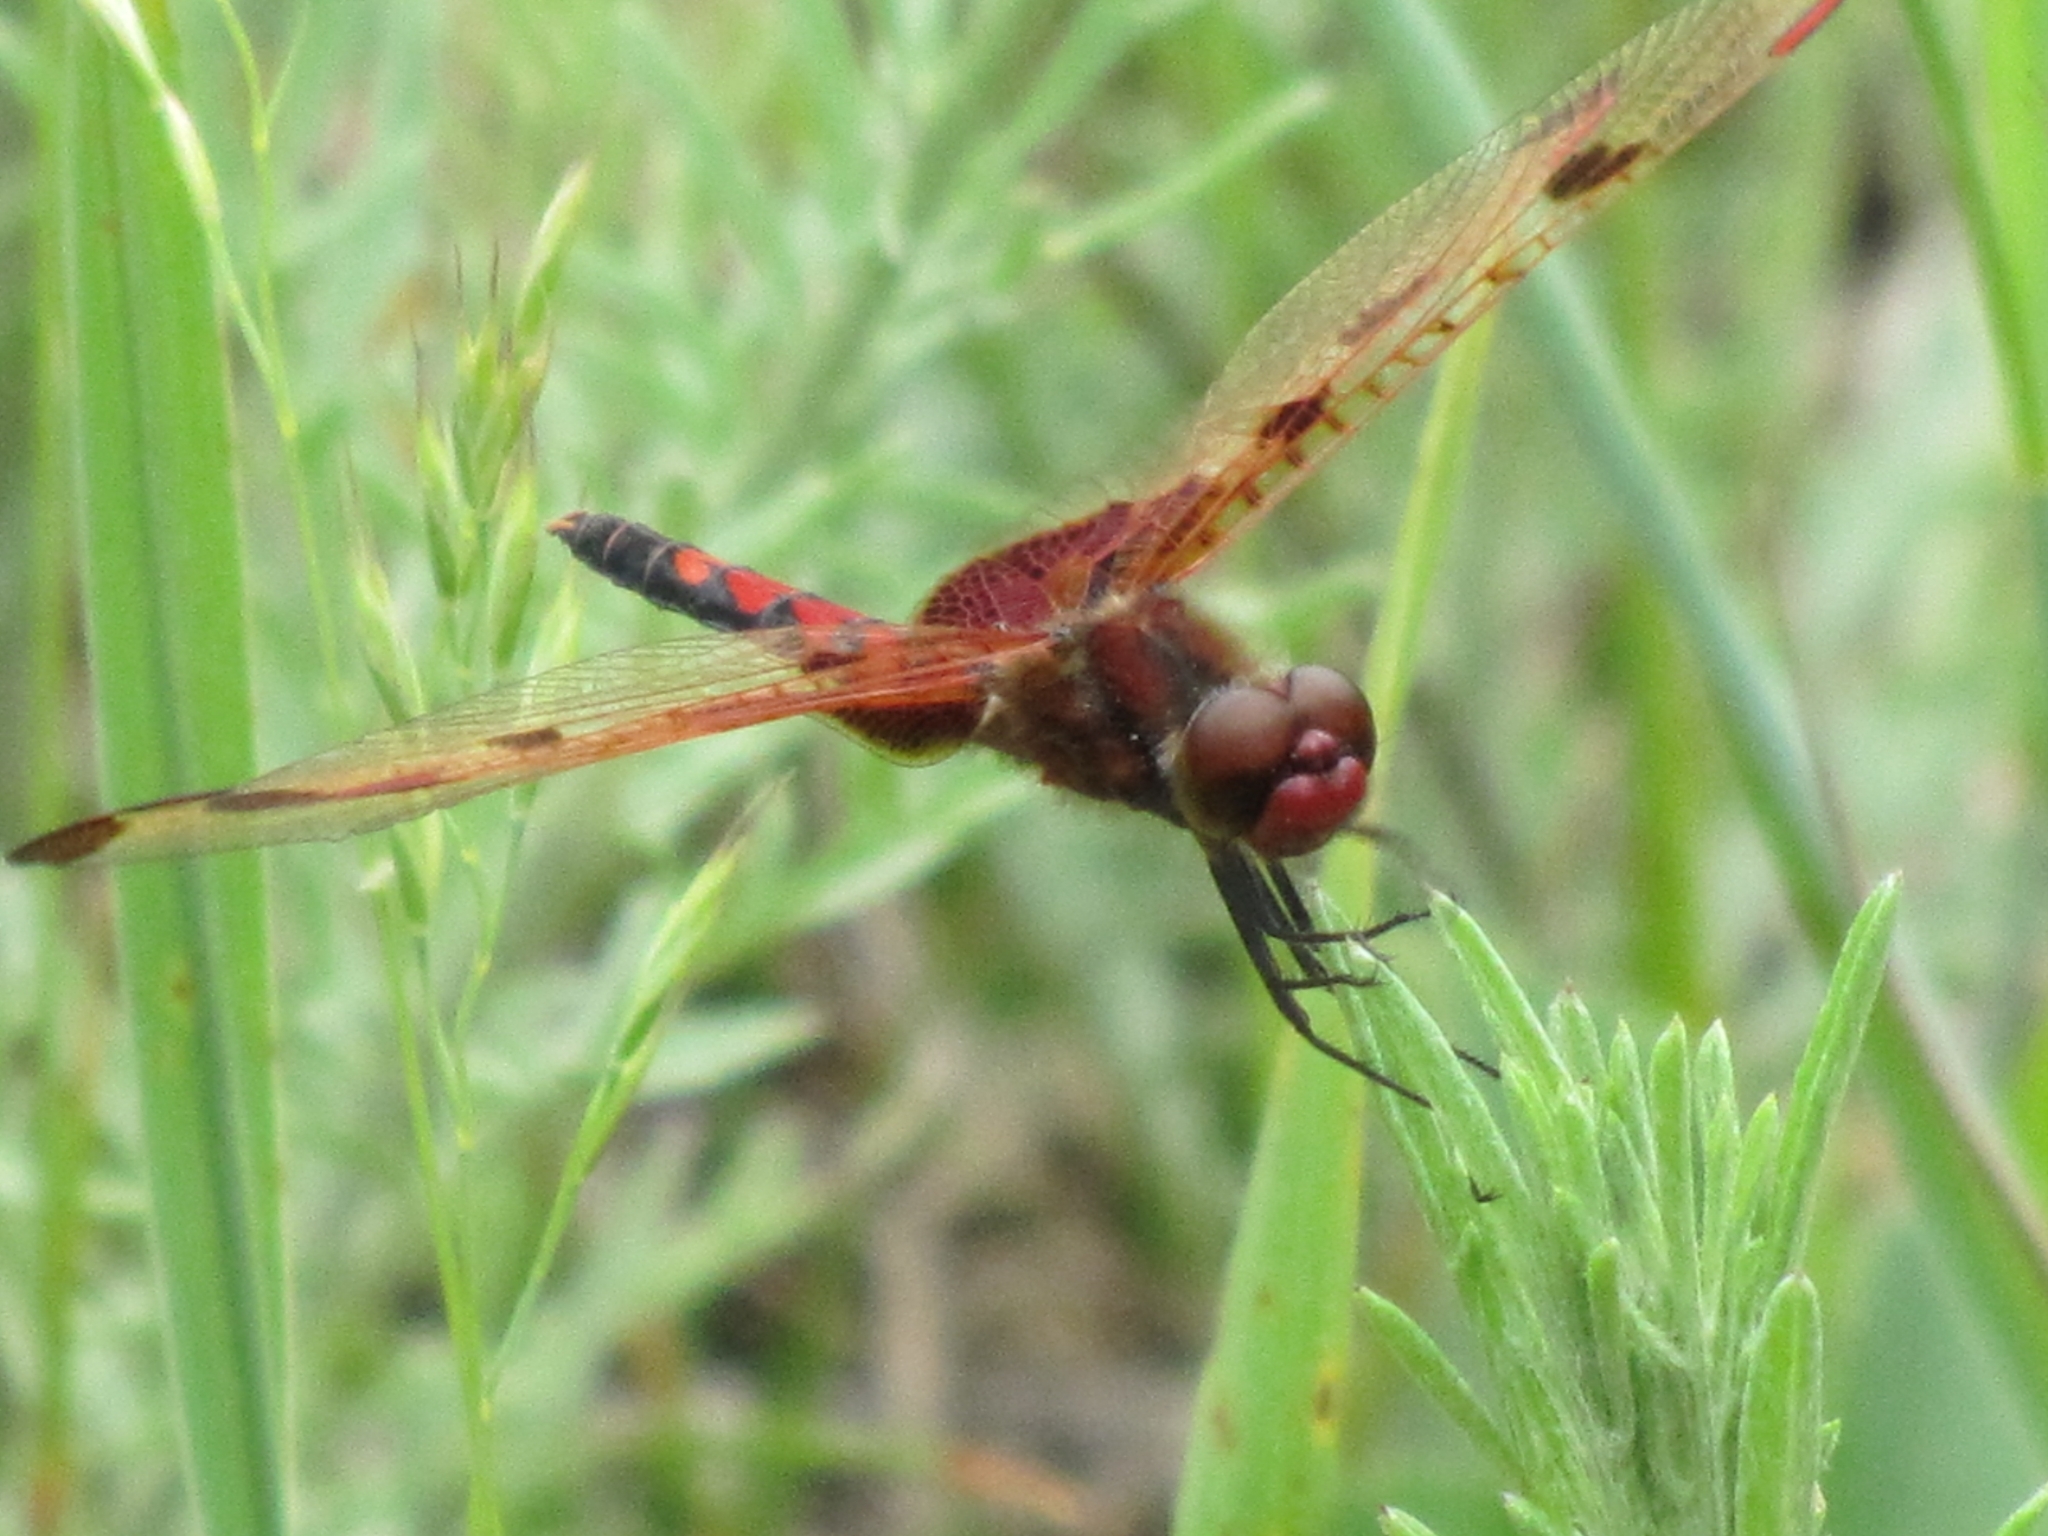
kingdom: Animalia
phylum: Arthropoda
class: Insecta
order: Odonata
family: Libellulidae
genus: Celithemis
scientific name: Celithemis elisa
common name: Calico pennant
